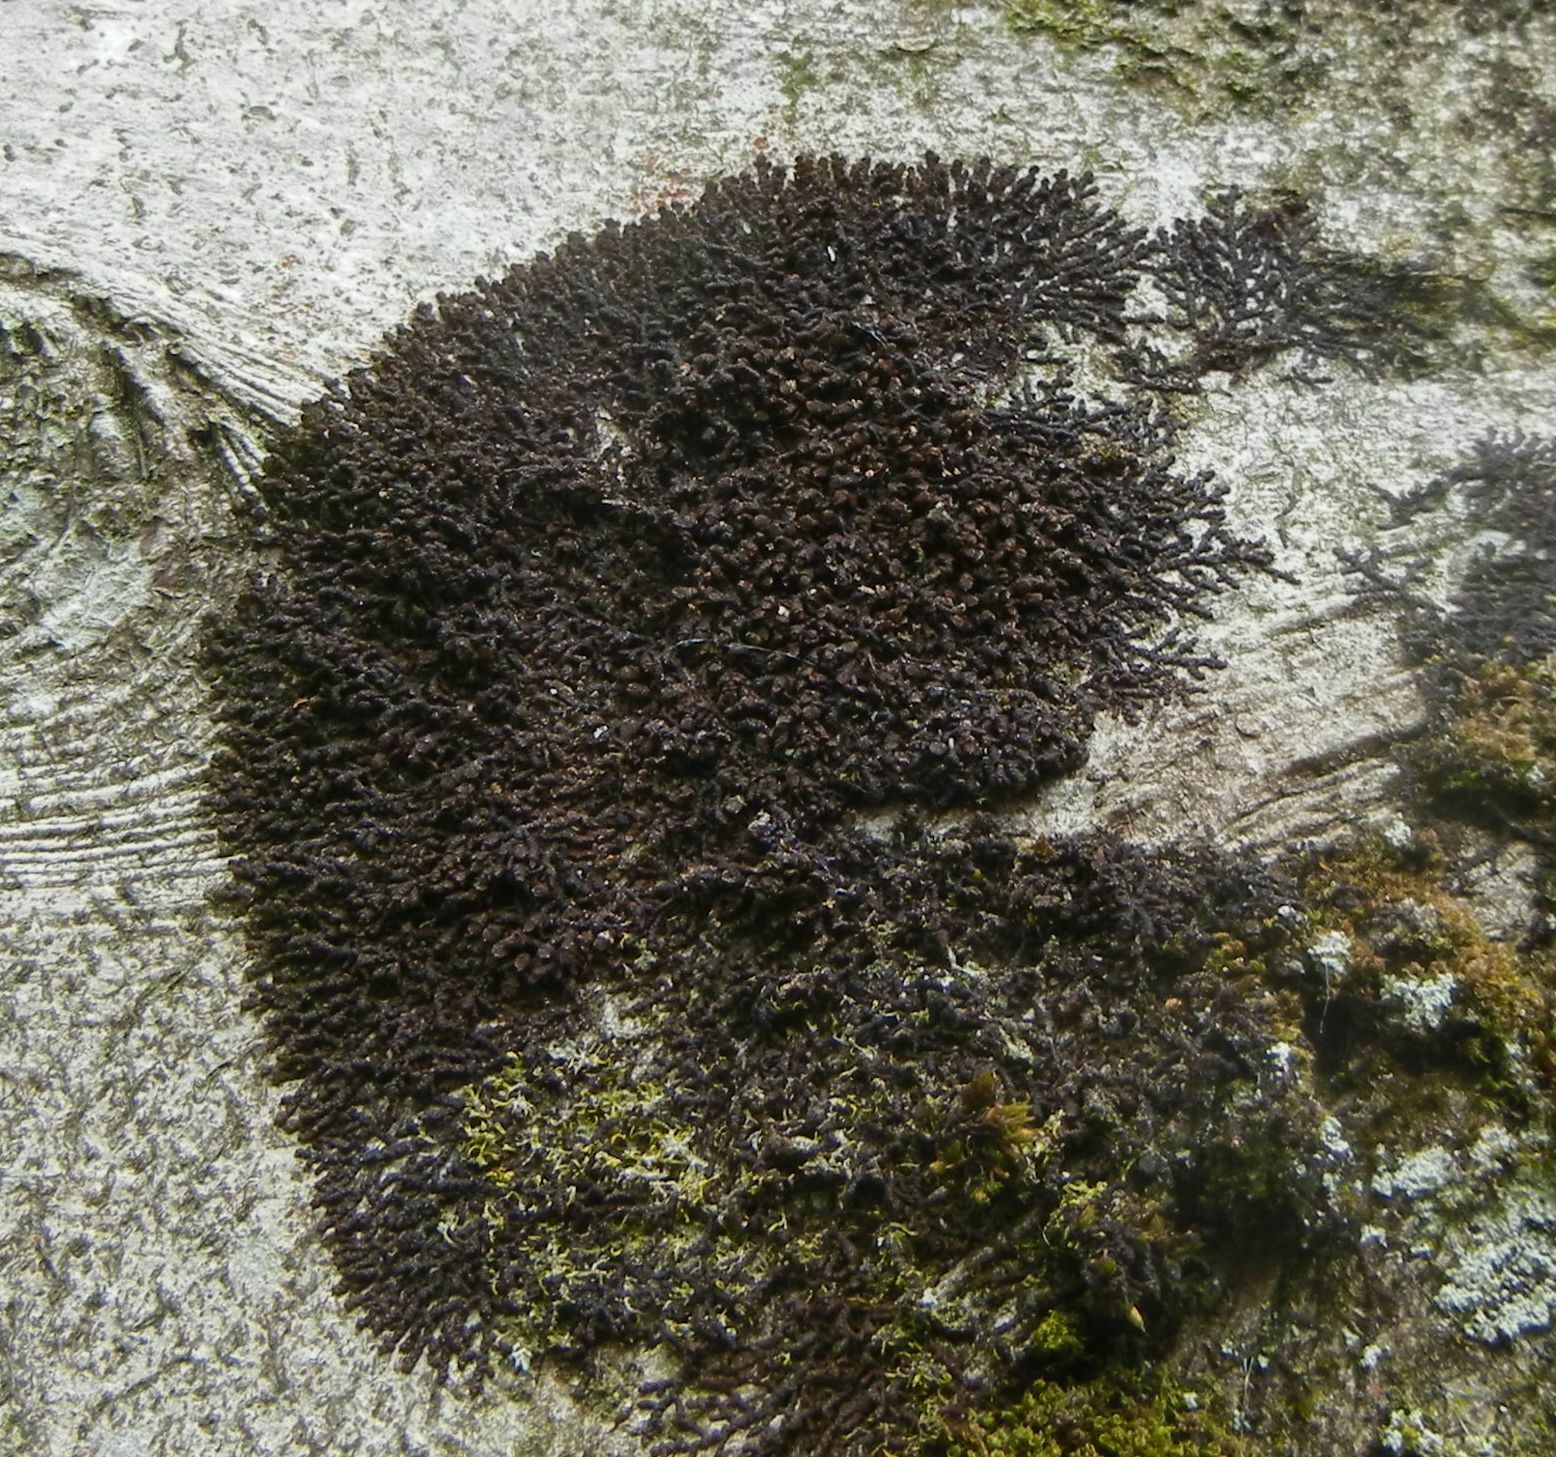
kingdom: Plantae
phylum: Marchantiophyta
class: Jungermanniopsida
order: Porellales
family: Frullaniaceae
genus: Frullania
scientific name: Frullania dilatata
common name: Dilated scalewort
